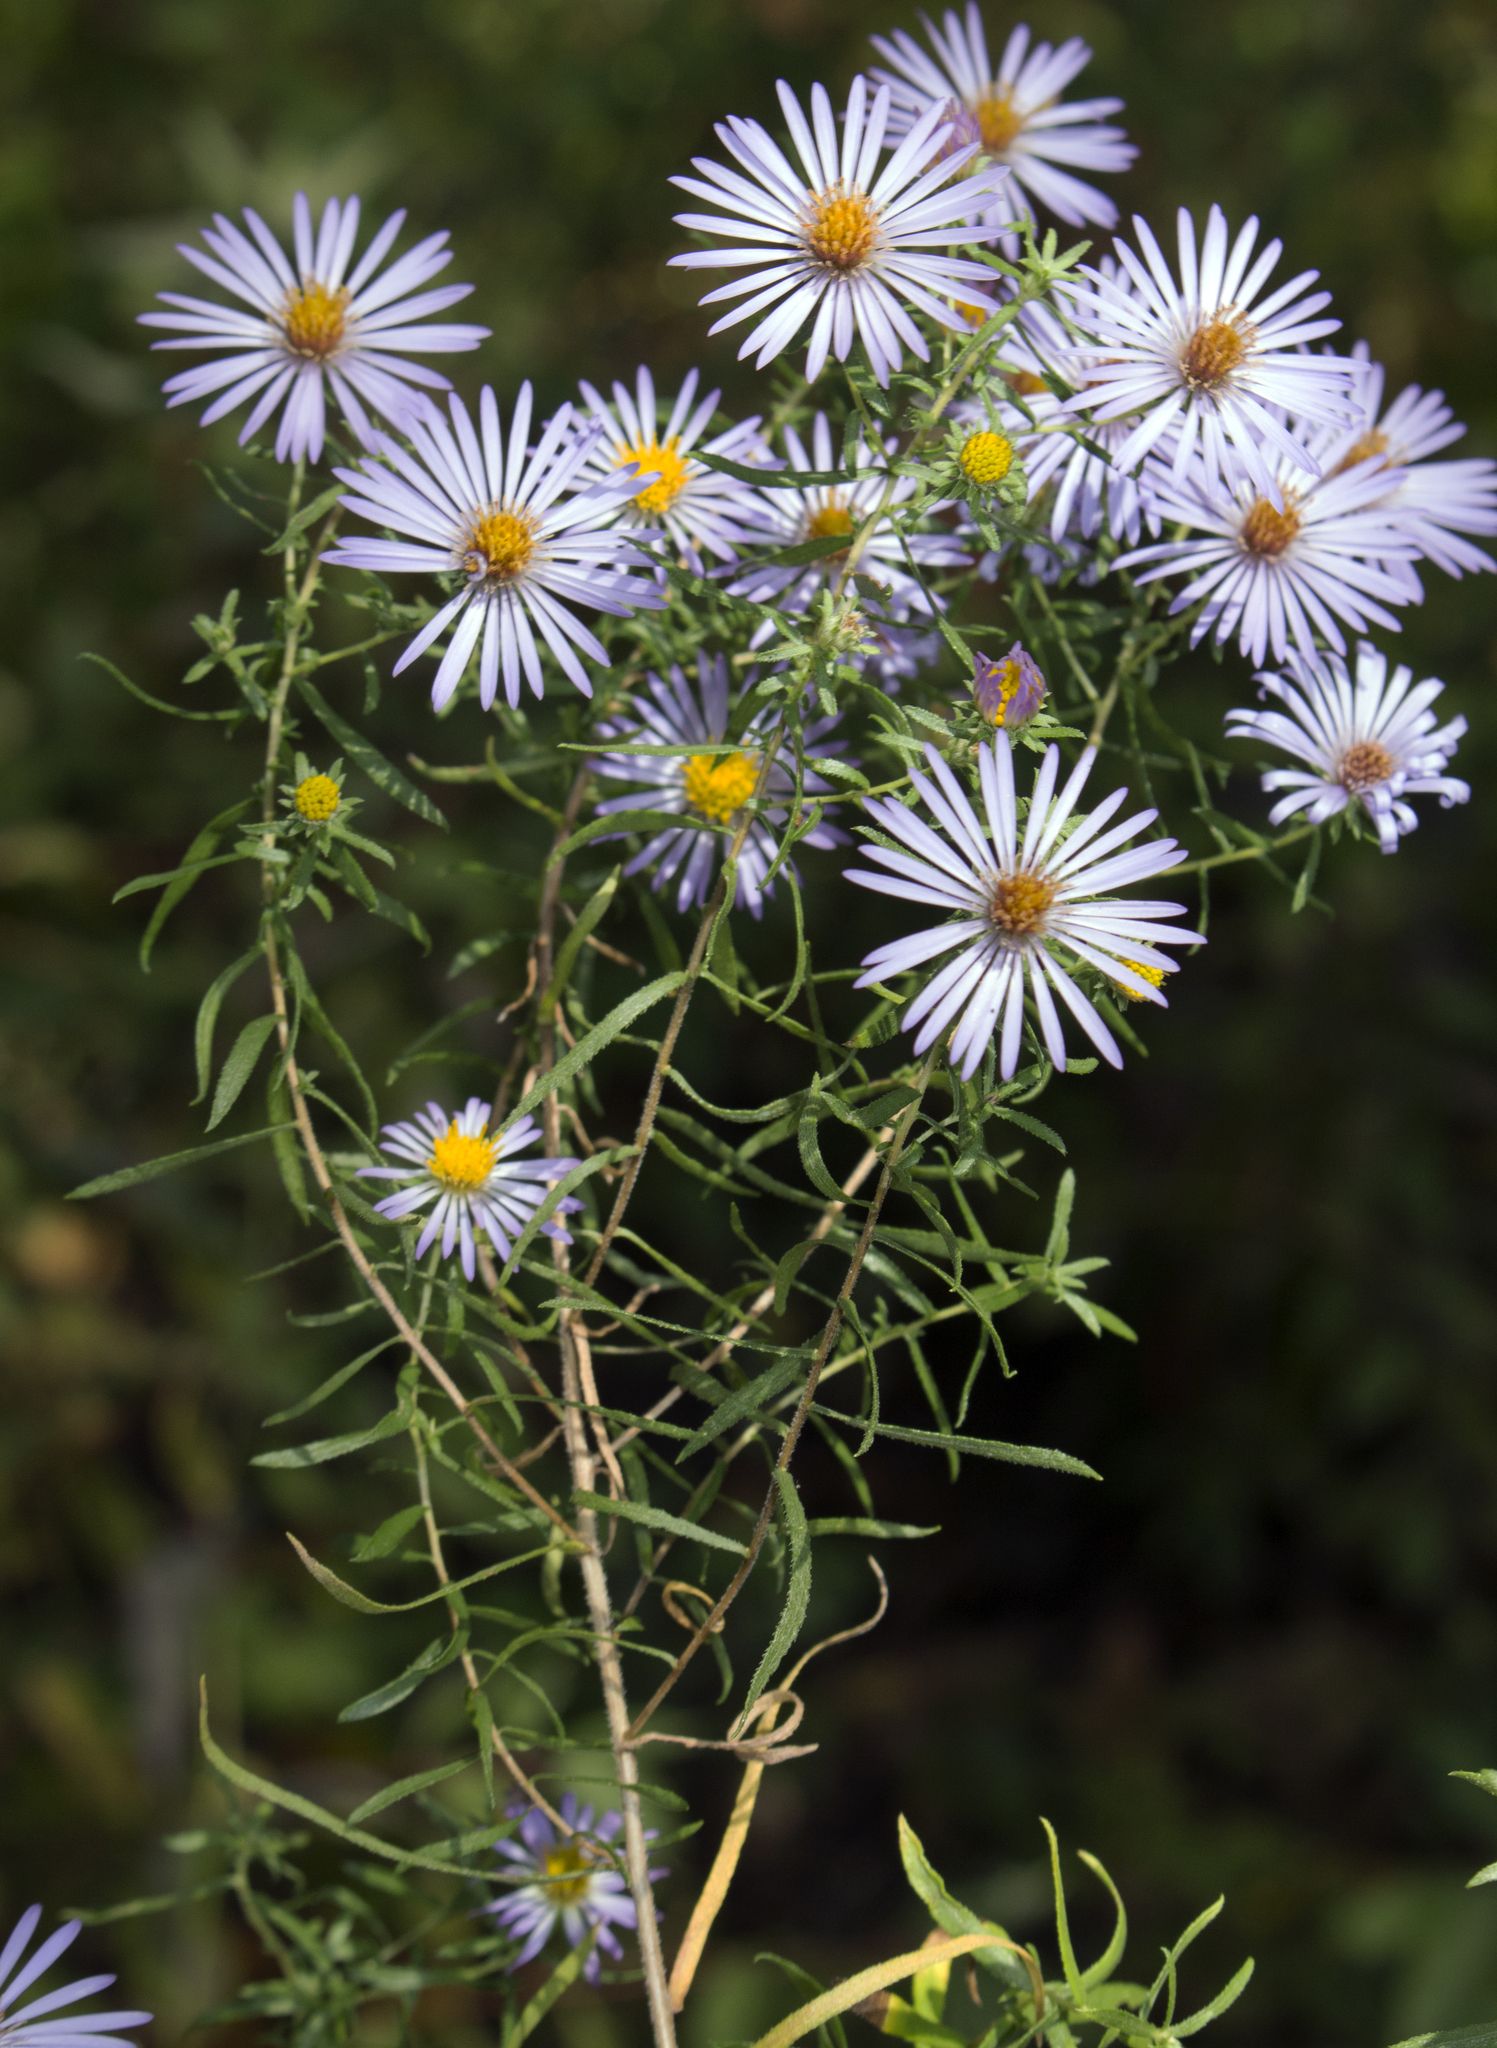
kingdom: Plantae
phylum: Tracheophyta
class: Magnoliopsida
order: Asterales
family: Asteraceae
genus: Symphyotrichum
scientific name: Symphyotrichum oblongifolium
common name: Aromatic aster
